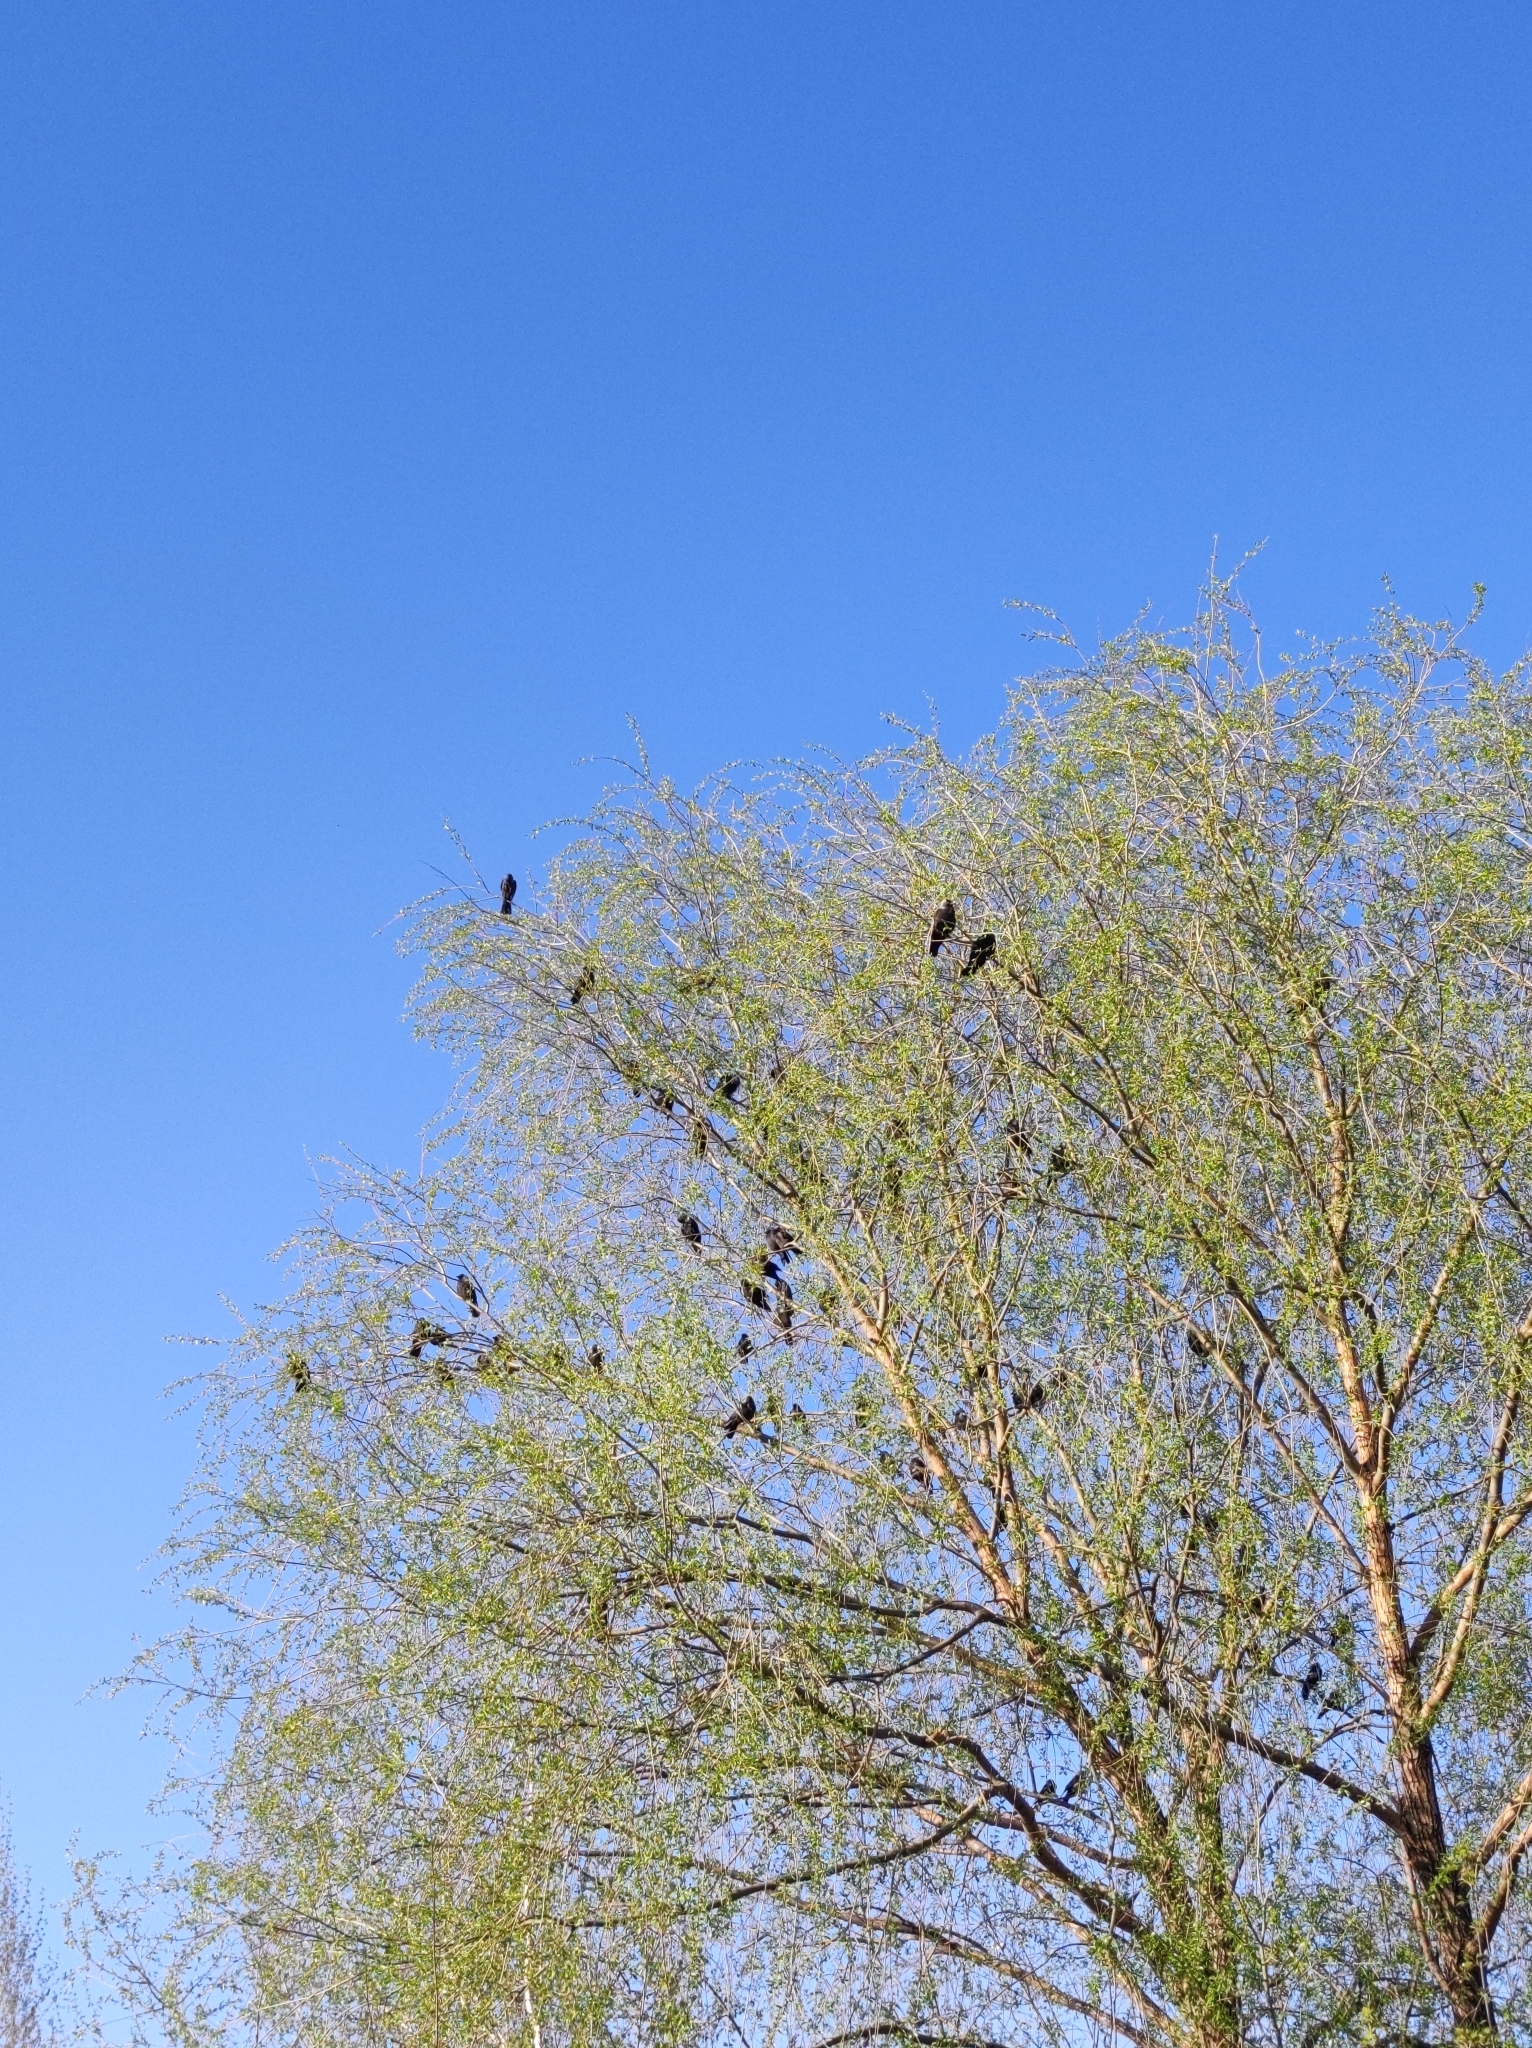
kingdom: Animalia
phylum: Chordata
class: Aves
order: Passeriformes
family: Corvidae
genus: Coloeus
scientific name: Coloeus monedula
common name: Western jackdaw
